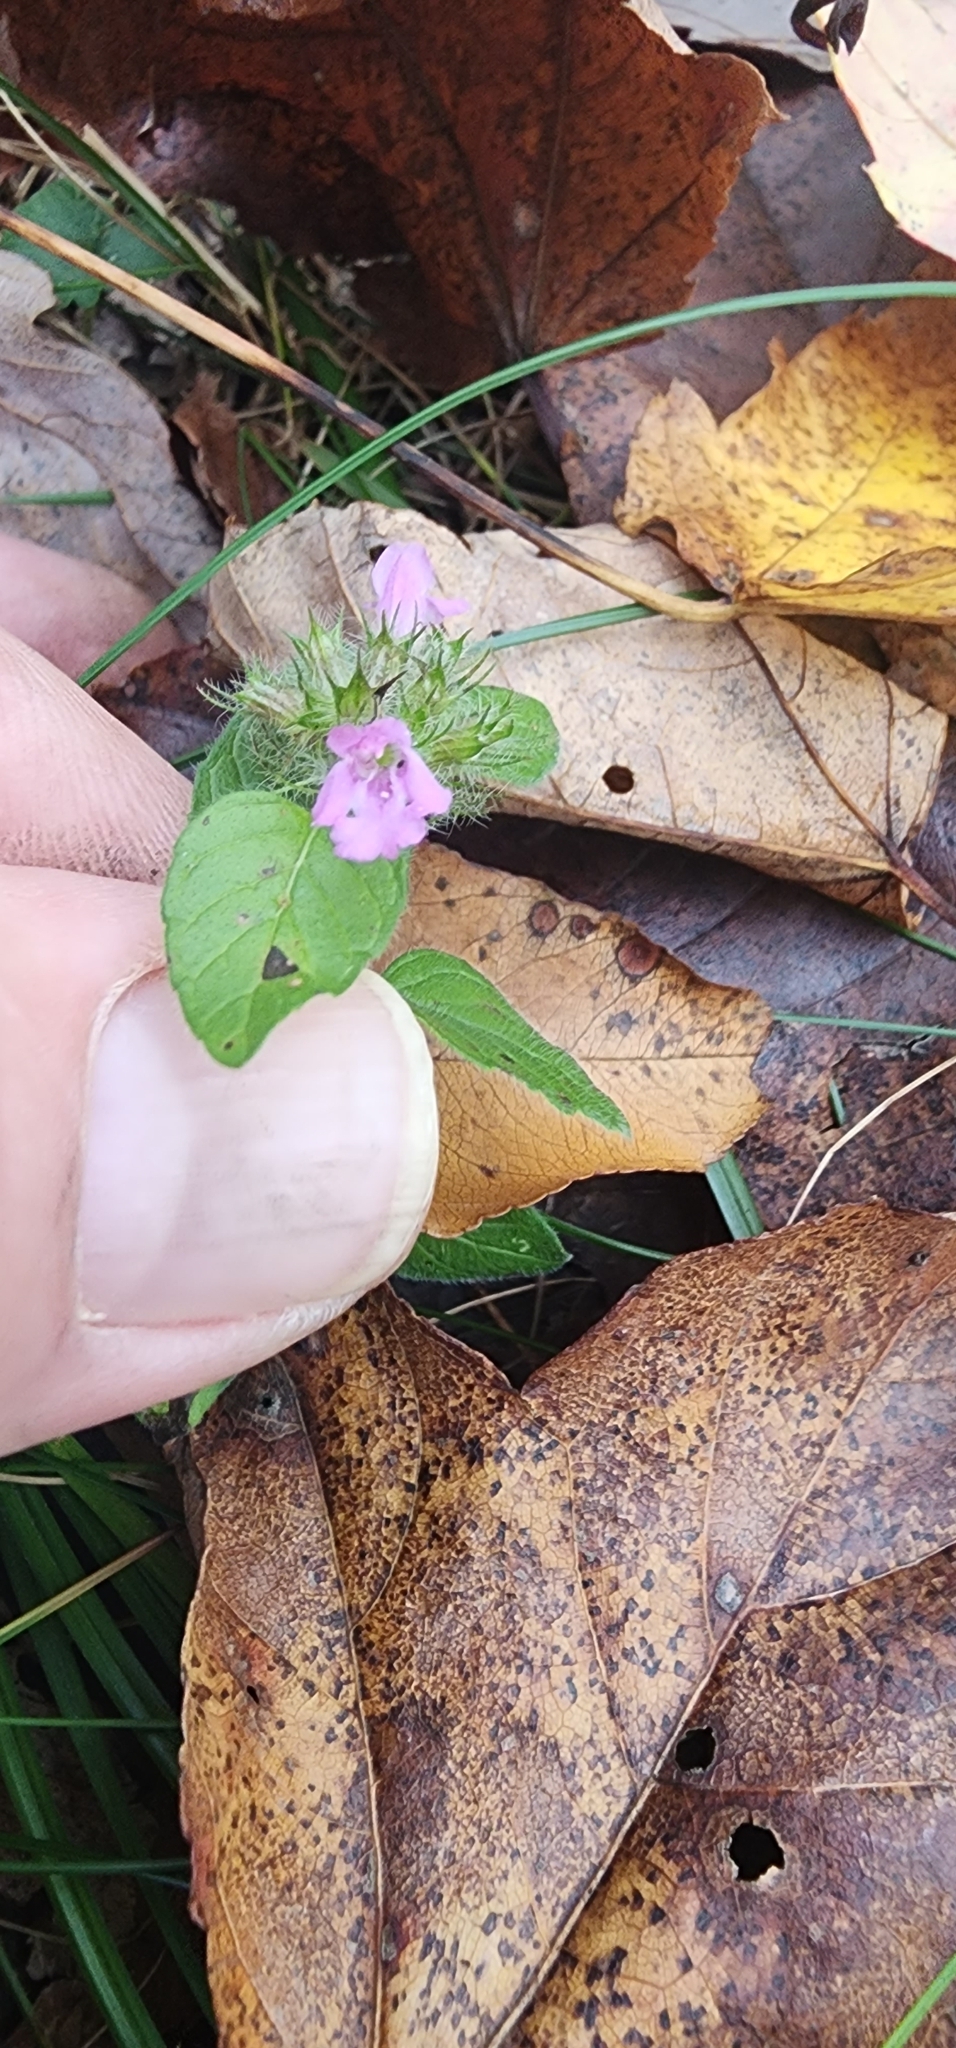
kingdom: Plantae
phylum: Tracheophyta
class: Magnoliopsida
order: Lamiales
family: Lamiaceae
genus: Clinopodium
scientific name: Clinopodium vulgare
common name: Wild basil
